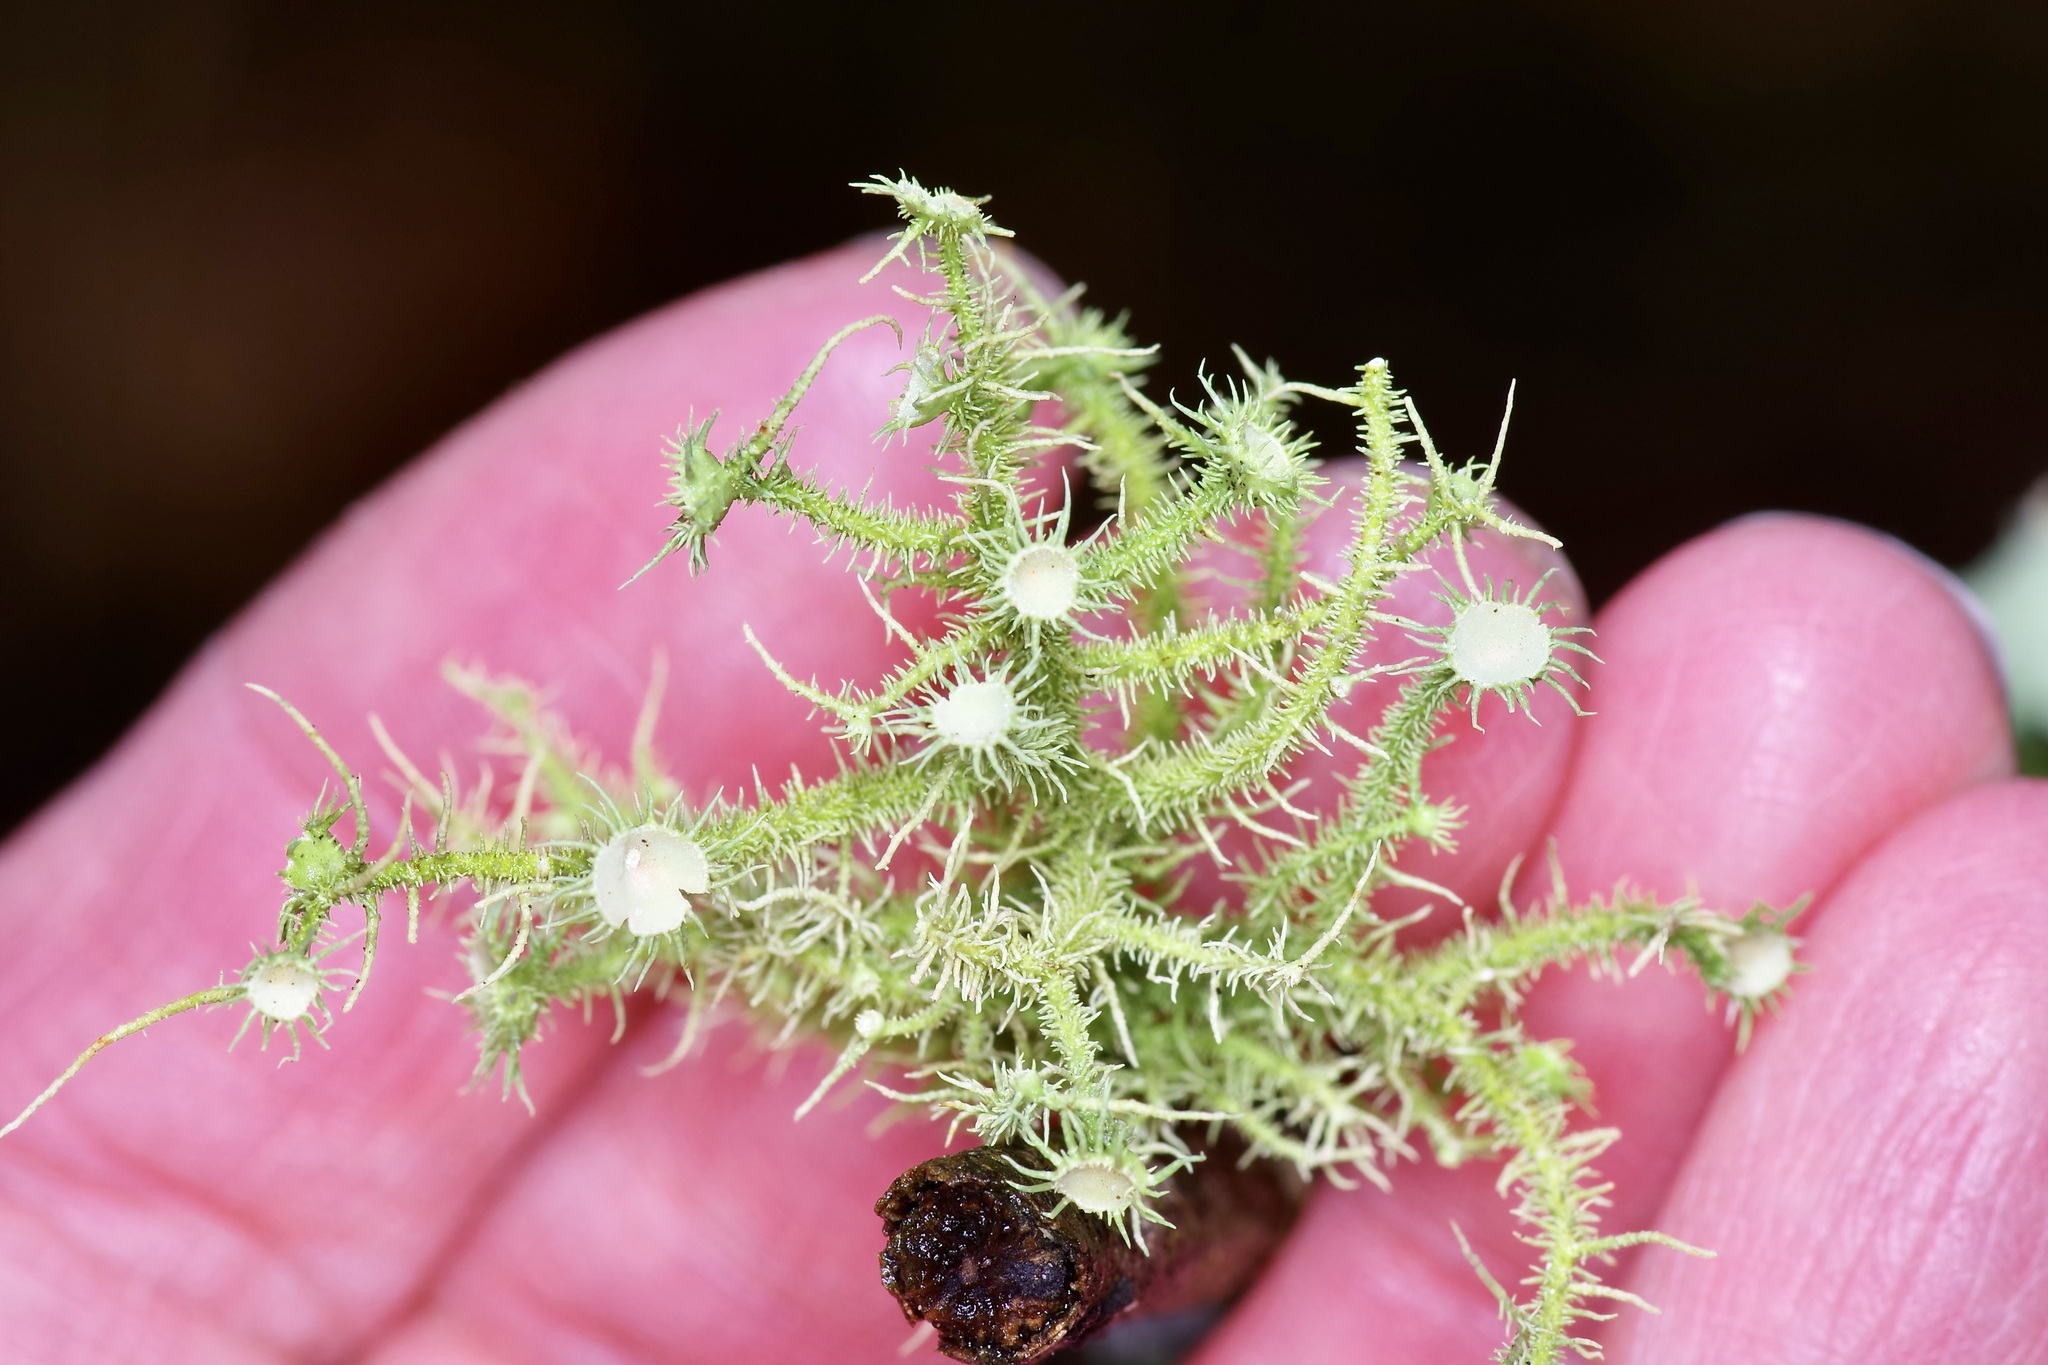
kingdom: Fungi
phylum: Ascomycota
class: Lecanoromycetes
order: Lecanorales
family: Parmeliaceae
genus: Usnea
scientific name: Usnea strigosa
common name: Bushy beard lichen
